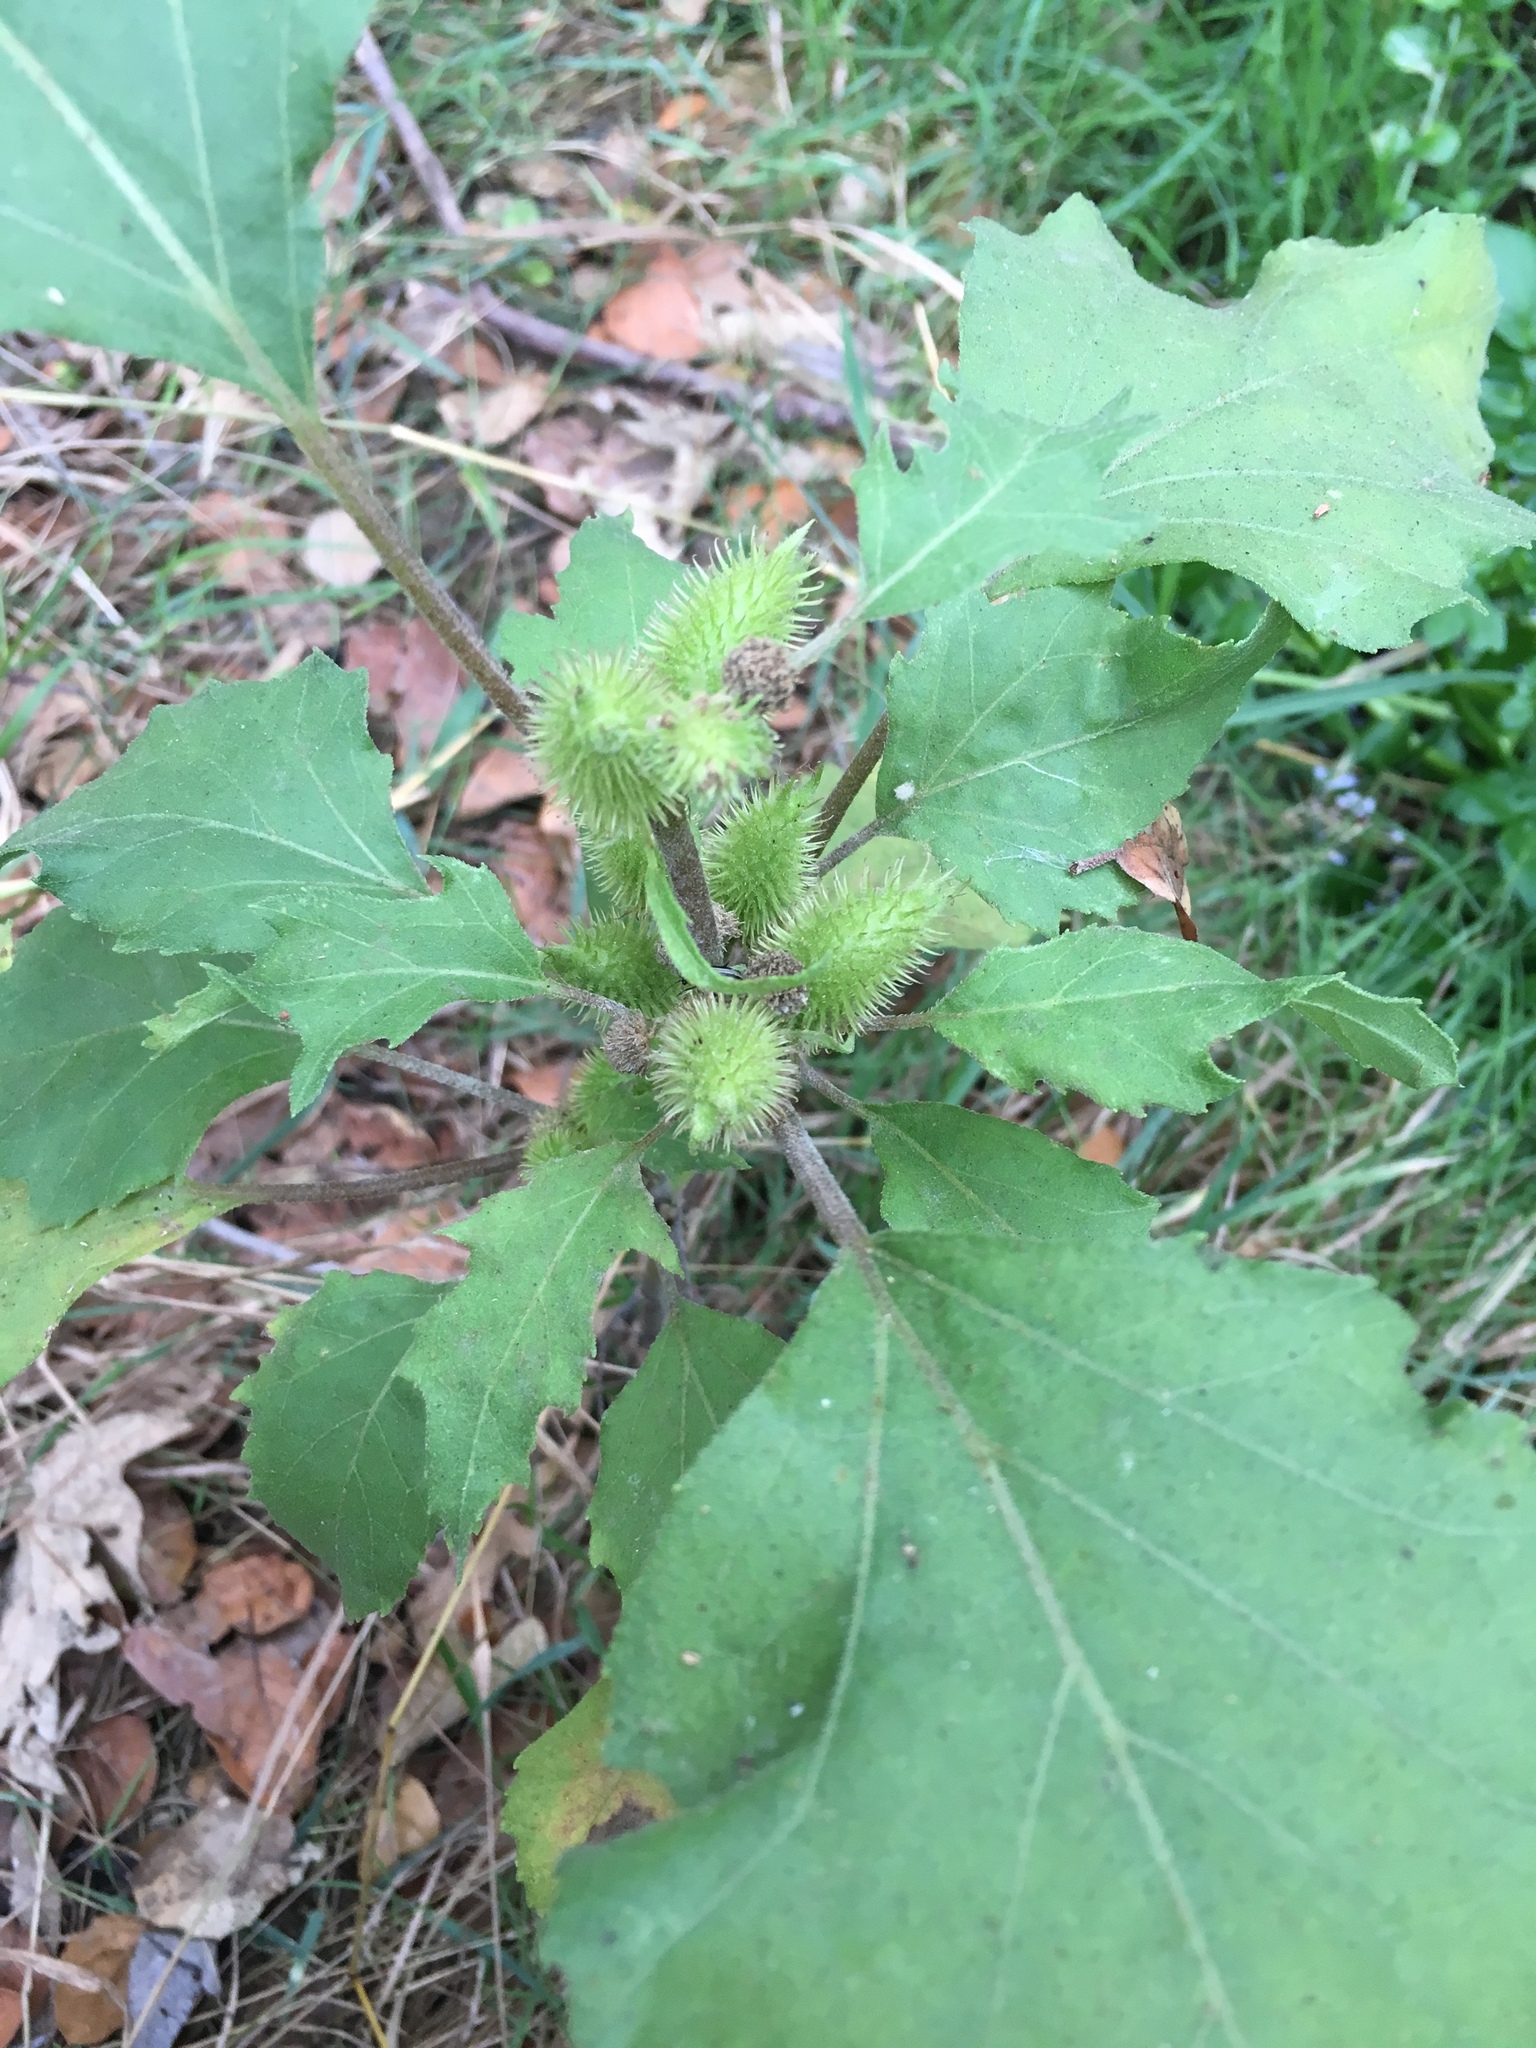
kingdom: Plantae
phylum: Tracheophyta
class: Magnoliopsida
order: Asterales
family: Asteraceae
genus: Xanthium
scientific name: Xanthium strumarium
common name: Rough cocklebur
